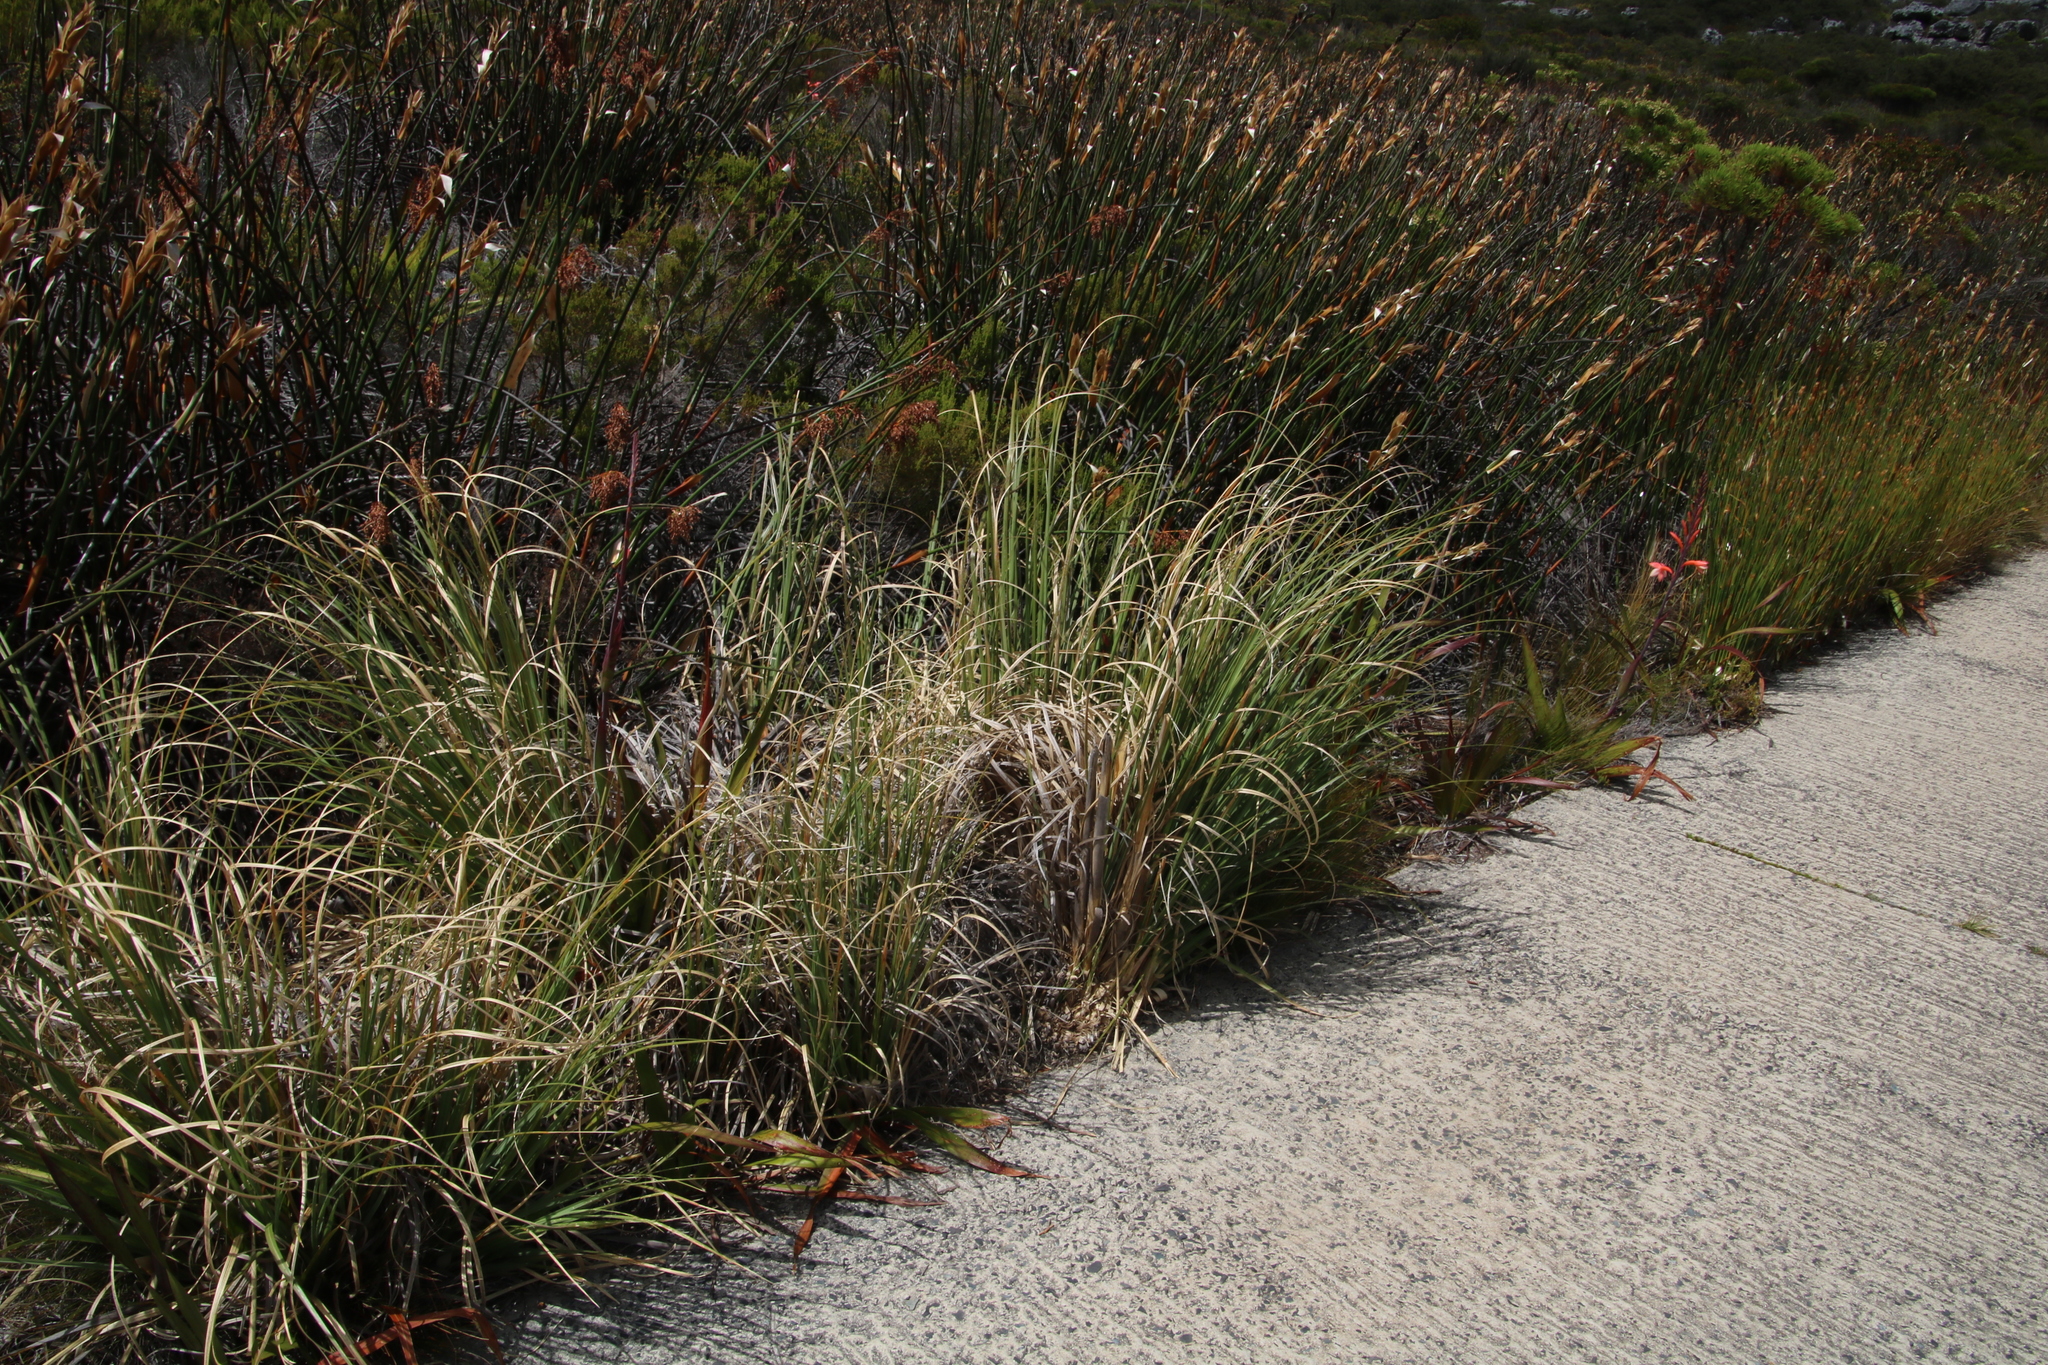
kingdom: Plantae
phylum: Tracheophyta
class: Liliopsida
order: Poales
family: Poaceae
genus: Cortaderia
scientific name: Cortaderia selloana
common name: Uruguayan pampas grass
